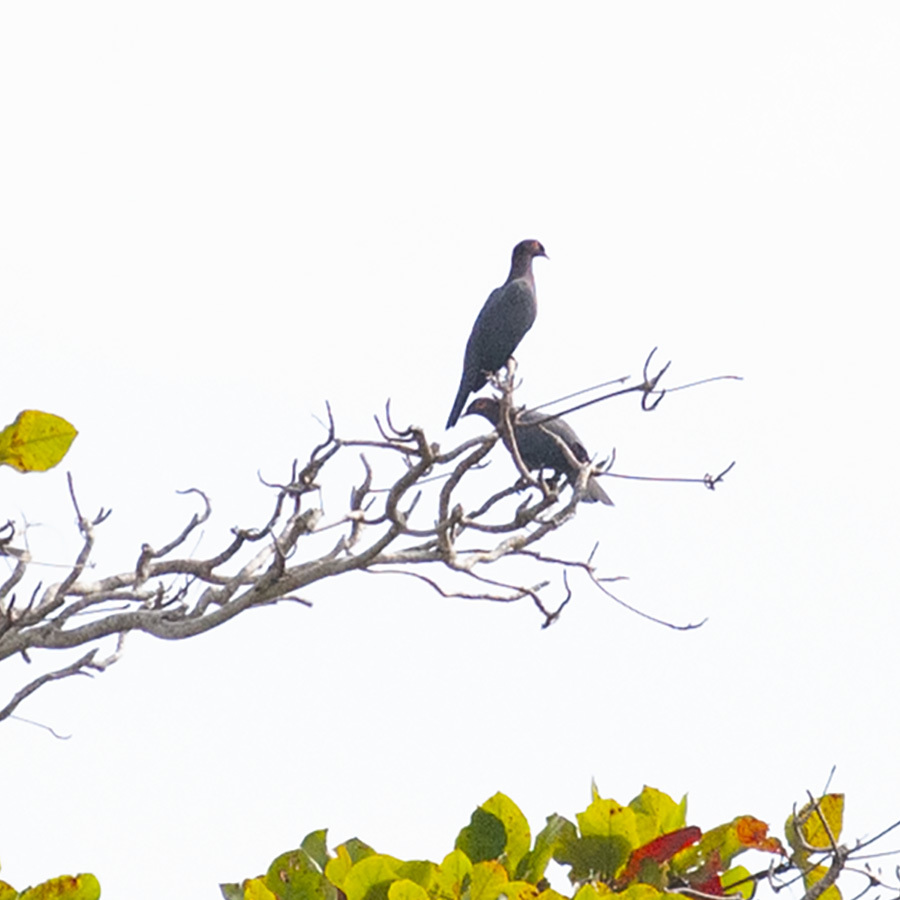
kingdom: Animalia
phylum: Chordata
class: Aves
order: Columbiformes
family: Columbidae
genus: Patagioenas
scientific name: Patagioenas squamosa
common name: Scaly-naped pigeon
